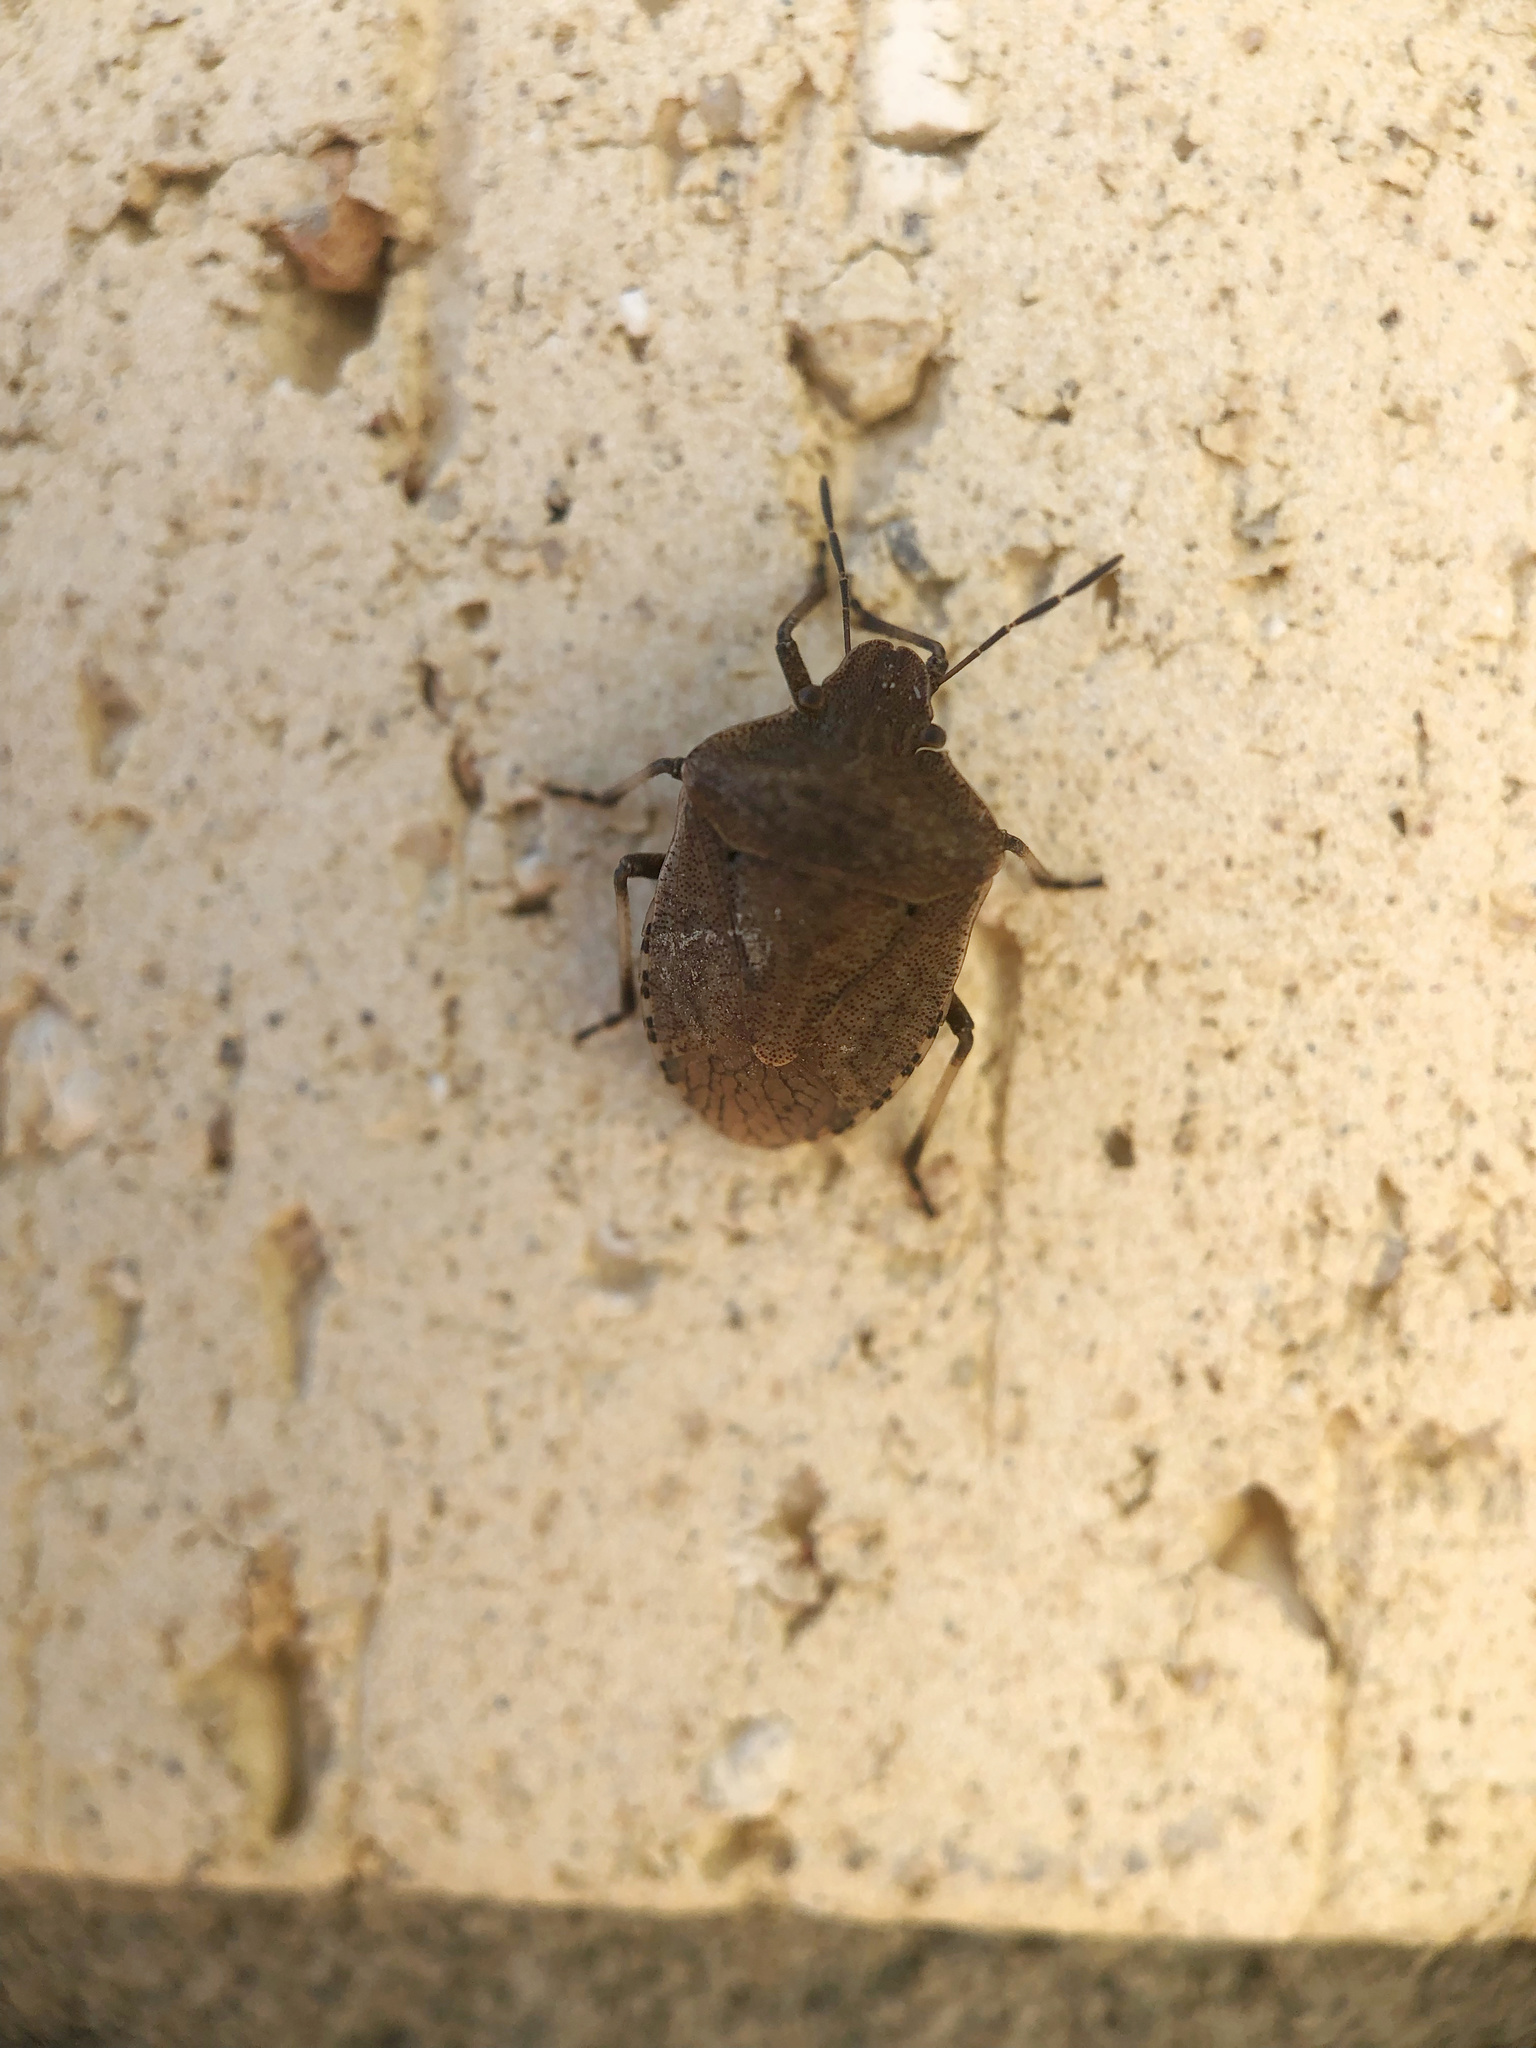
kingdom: Animalia
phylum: Arthropoda
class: Insecta
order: Hemiptera
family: Pentatomidae
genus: Dictyotus
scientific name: Dictyotus caenosus
